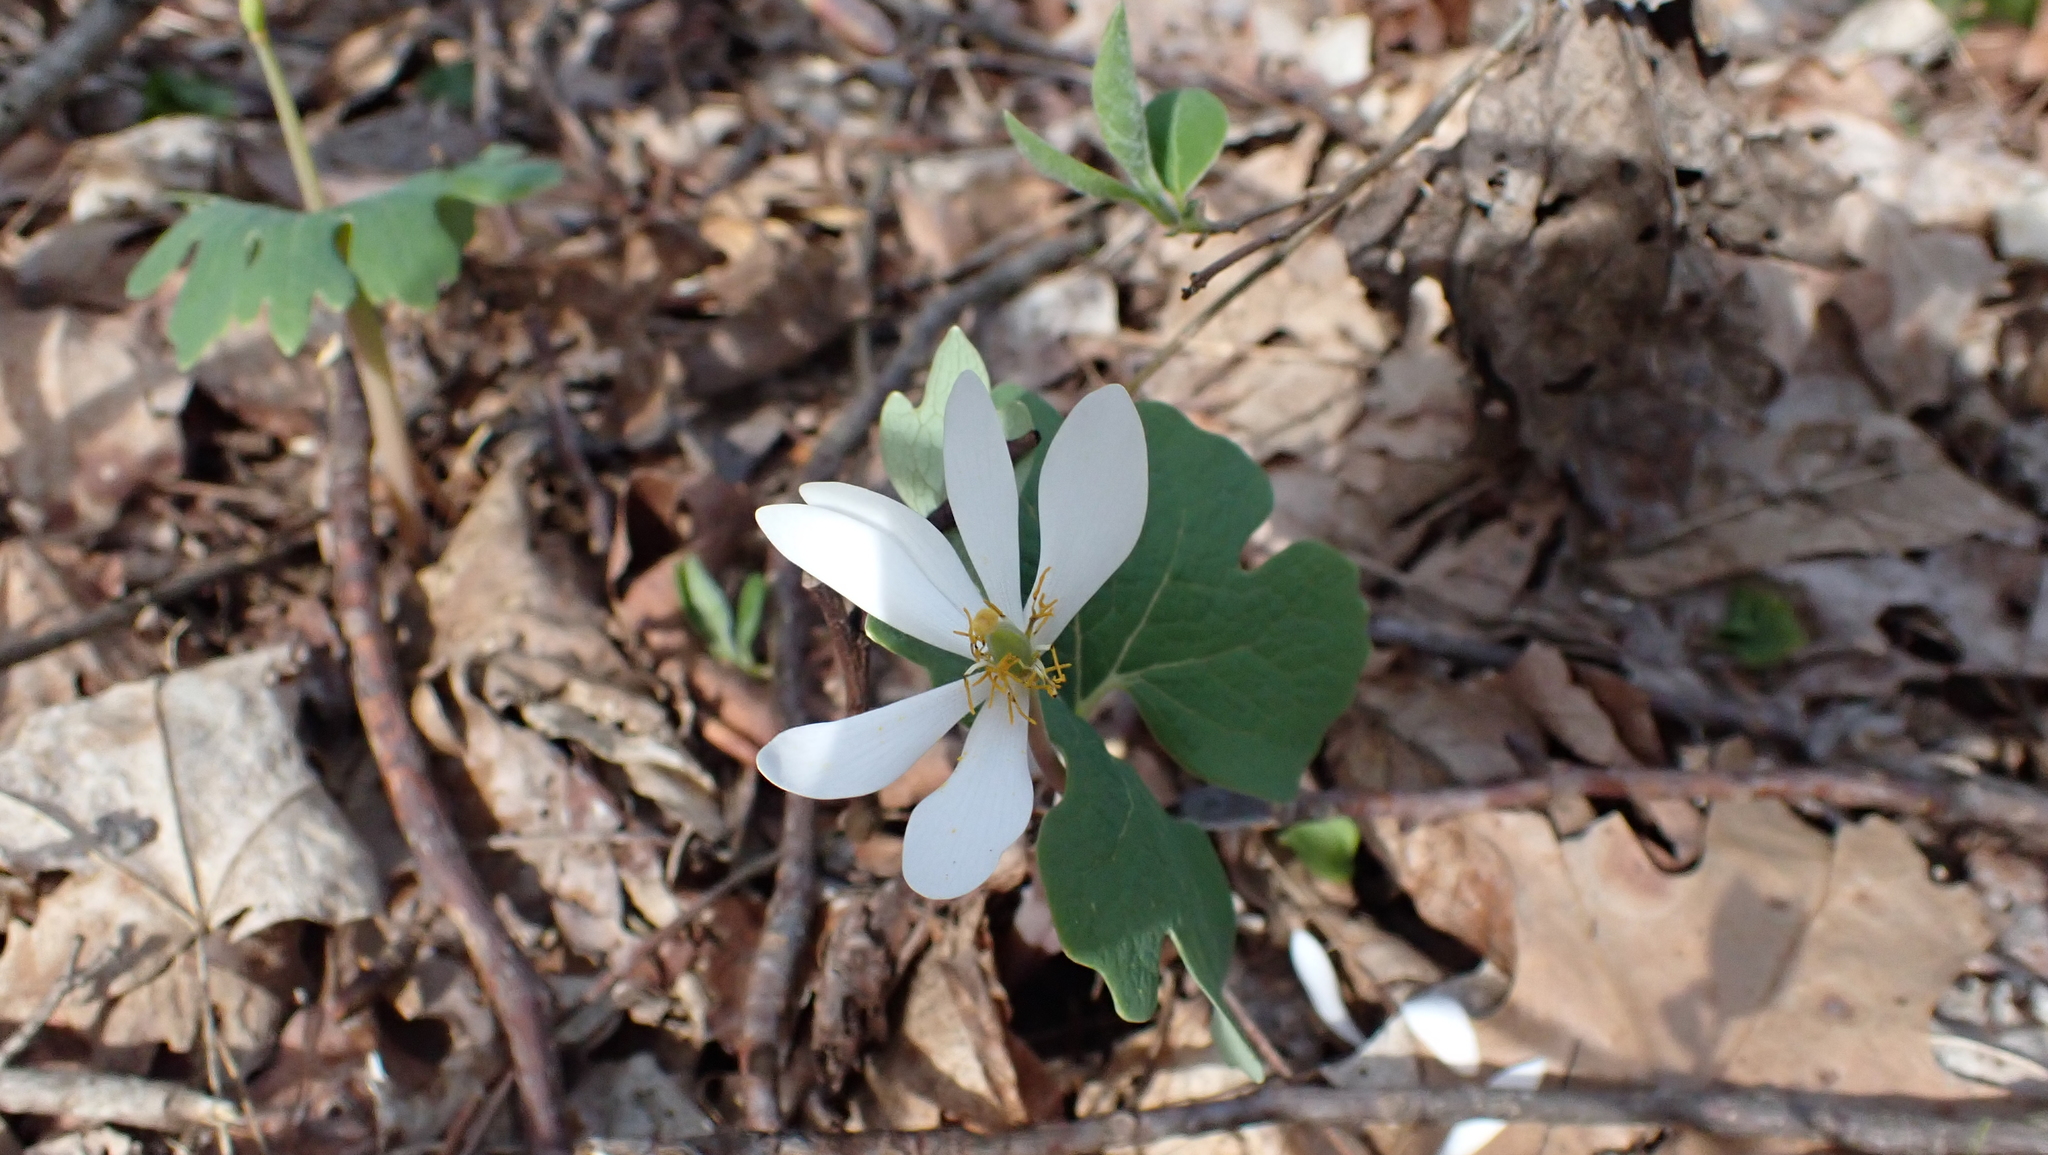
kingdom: Plantae
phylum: Tracheophyta
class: Magnoliopsida
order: Ranunculales
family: Papaveraceae
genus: Sanguinaria
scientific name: Sanguinaria canadensis
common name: Bloodroot
